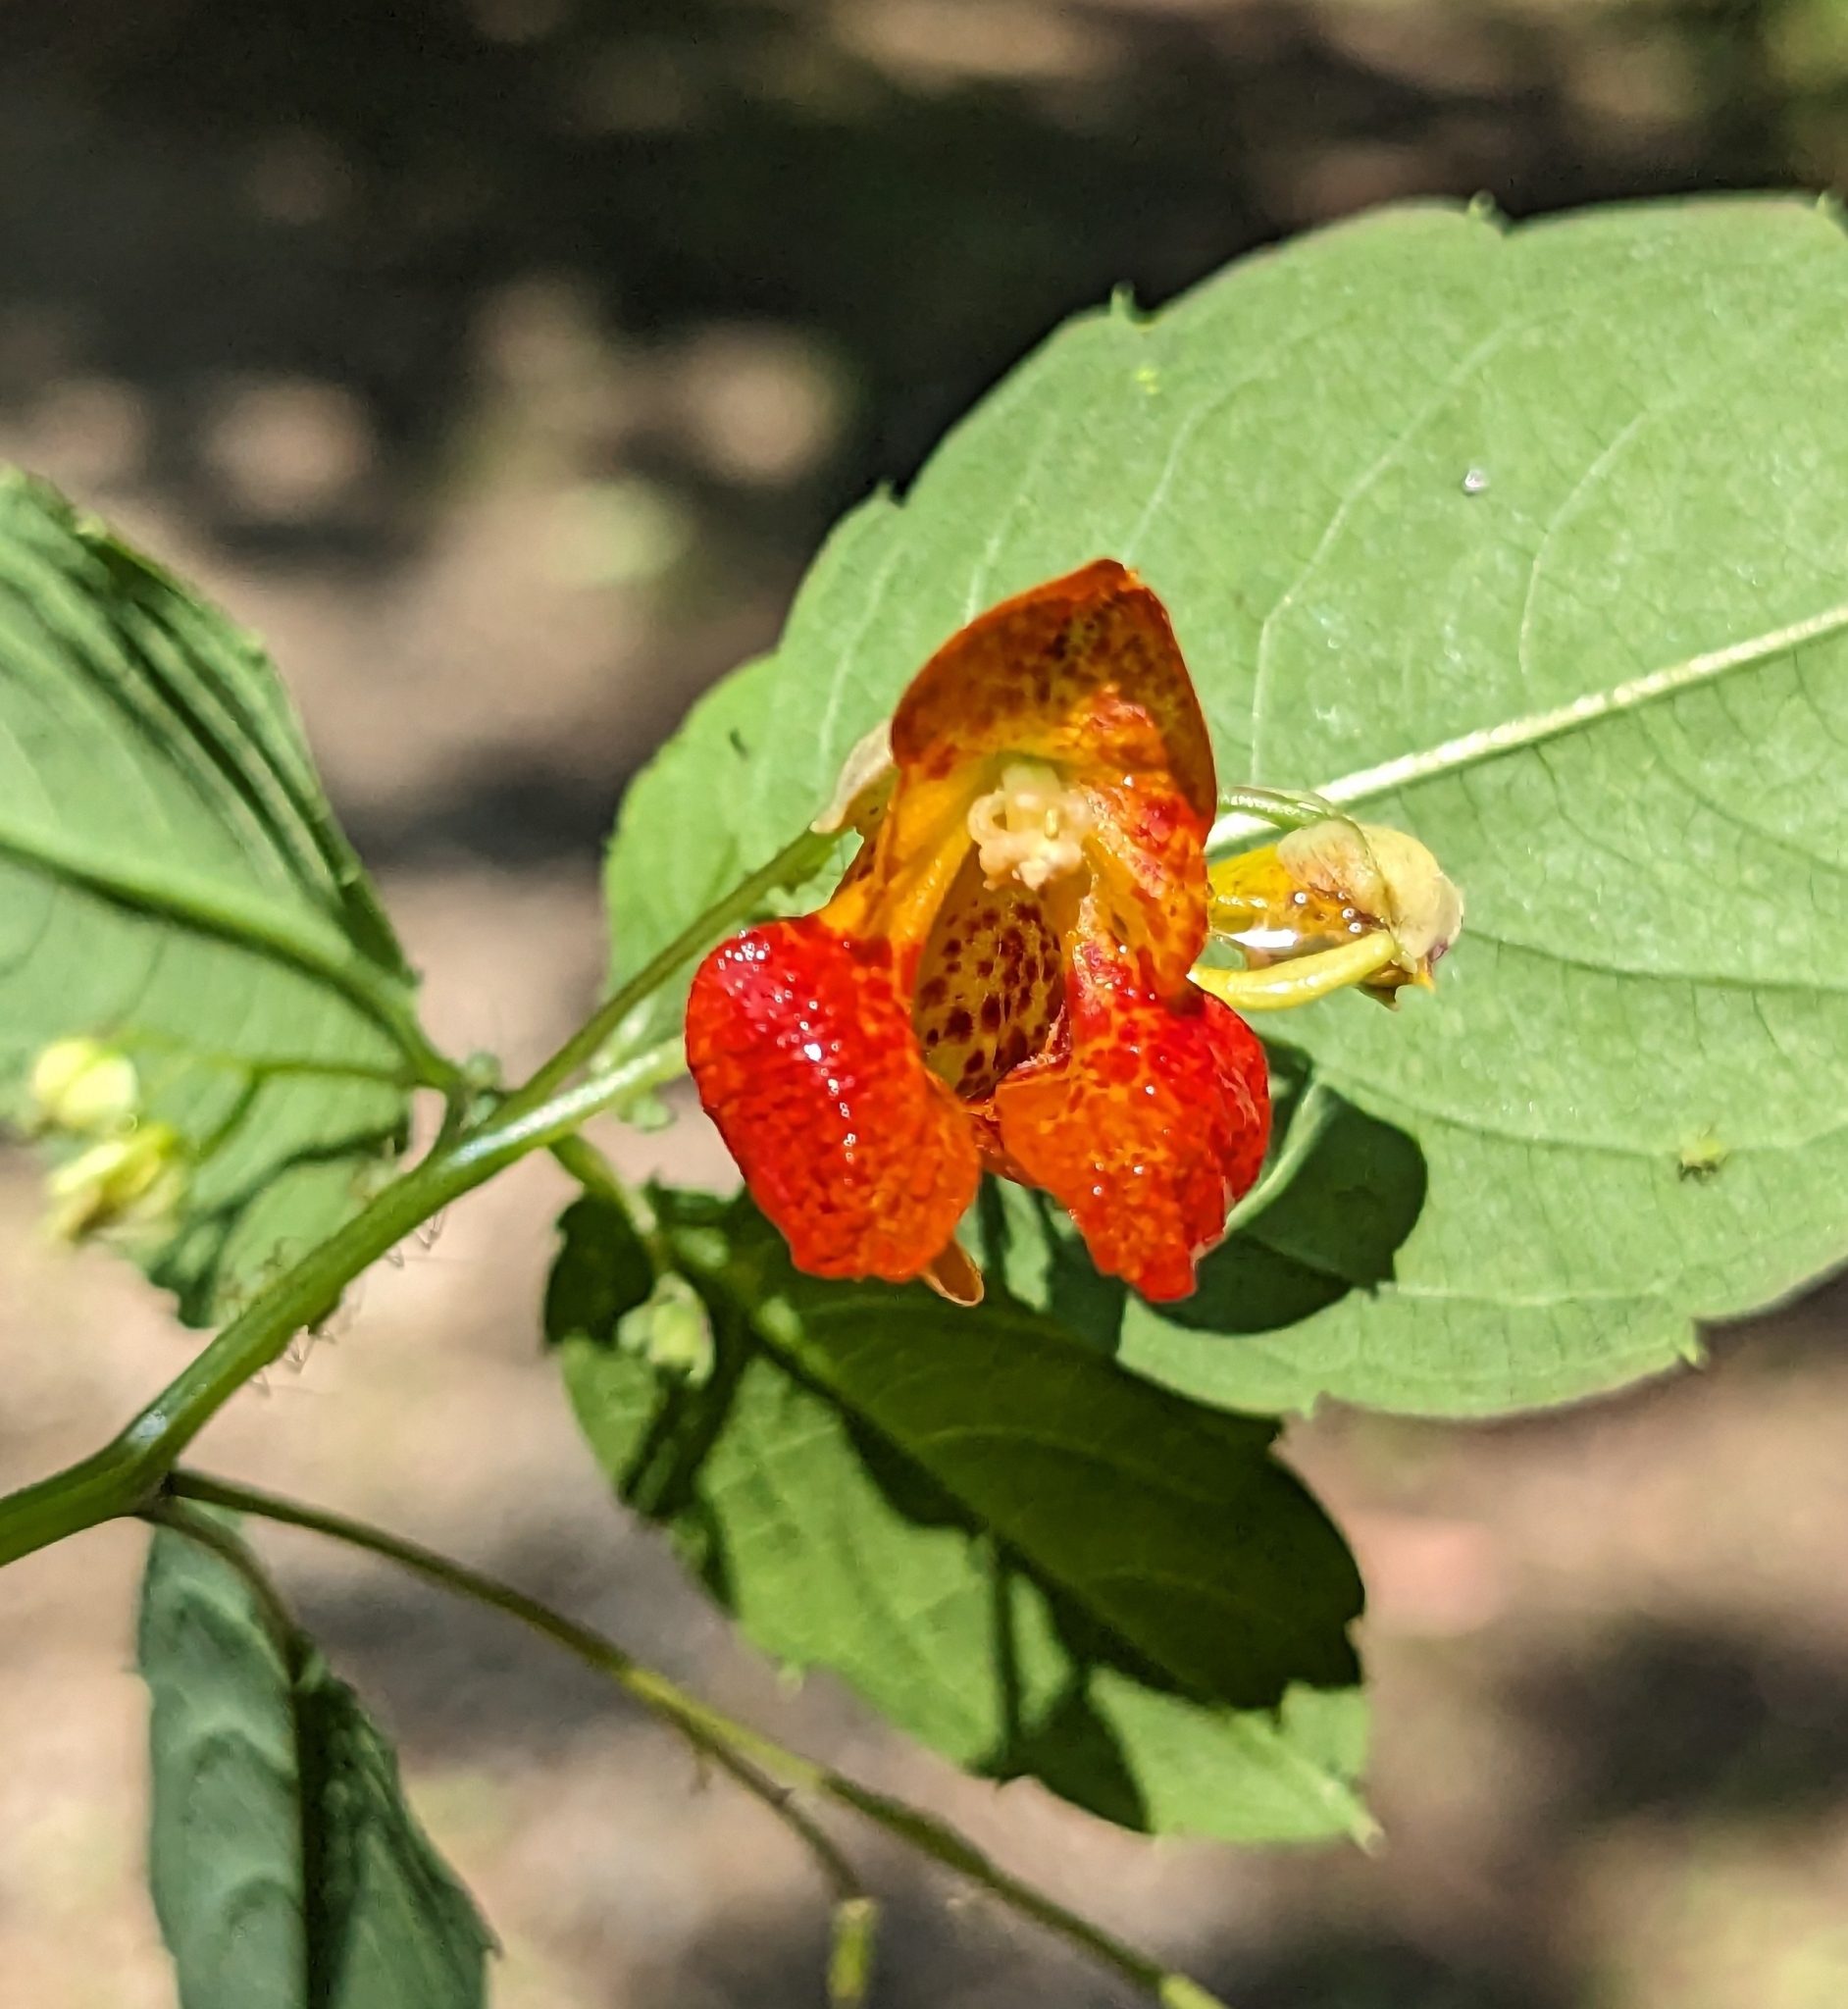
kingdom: Plantae
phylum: Tracheophyta
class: Magnoliopsida
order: Ericales
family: Balsaminaceae
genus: Impatiens
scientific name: Impatiens capensis
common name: Orange balsam
